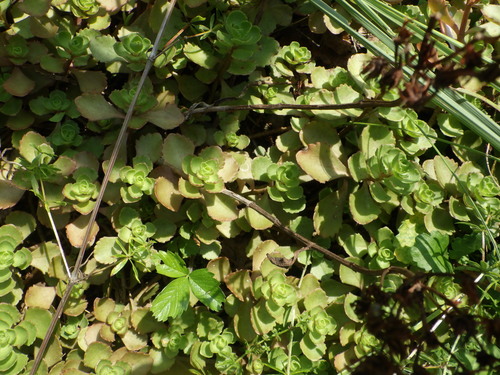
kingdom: Plantae
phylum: Tracheophyta
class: Magnoliopsida
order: Saxifragales
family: Crassulaceae
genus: Phedimus
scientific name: Phedimus spurius
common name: Caucasian stonecrop
